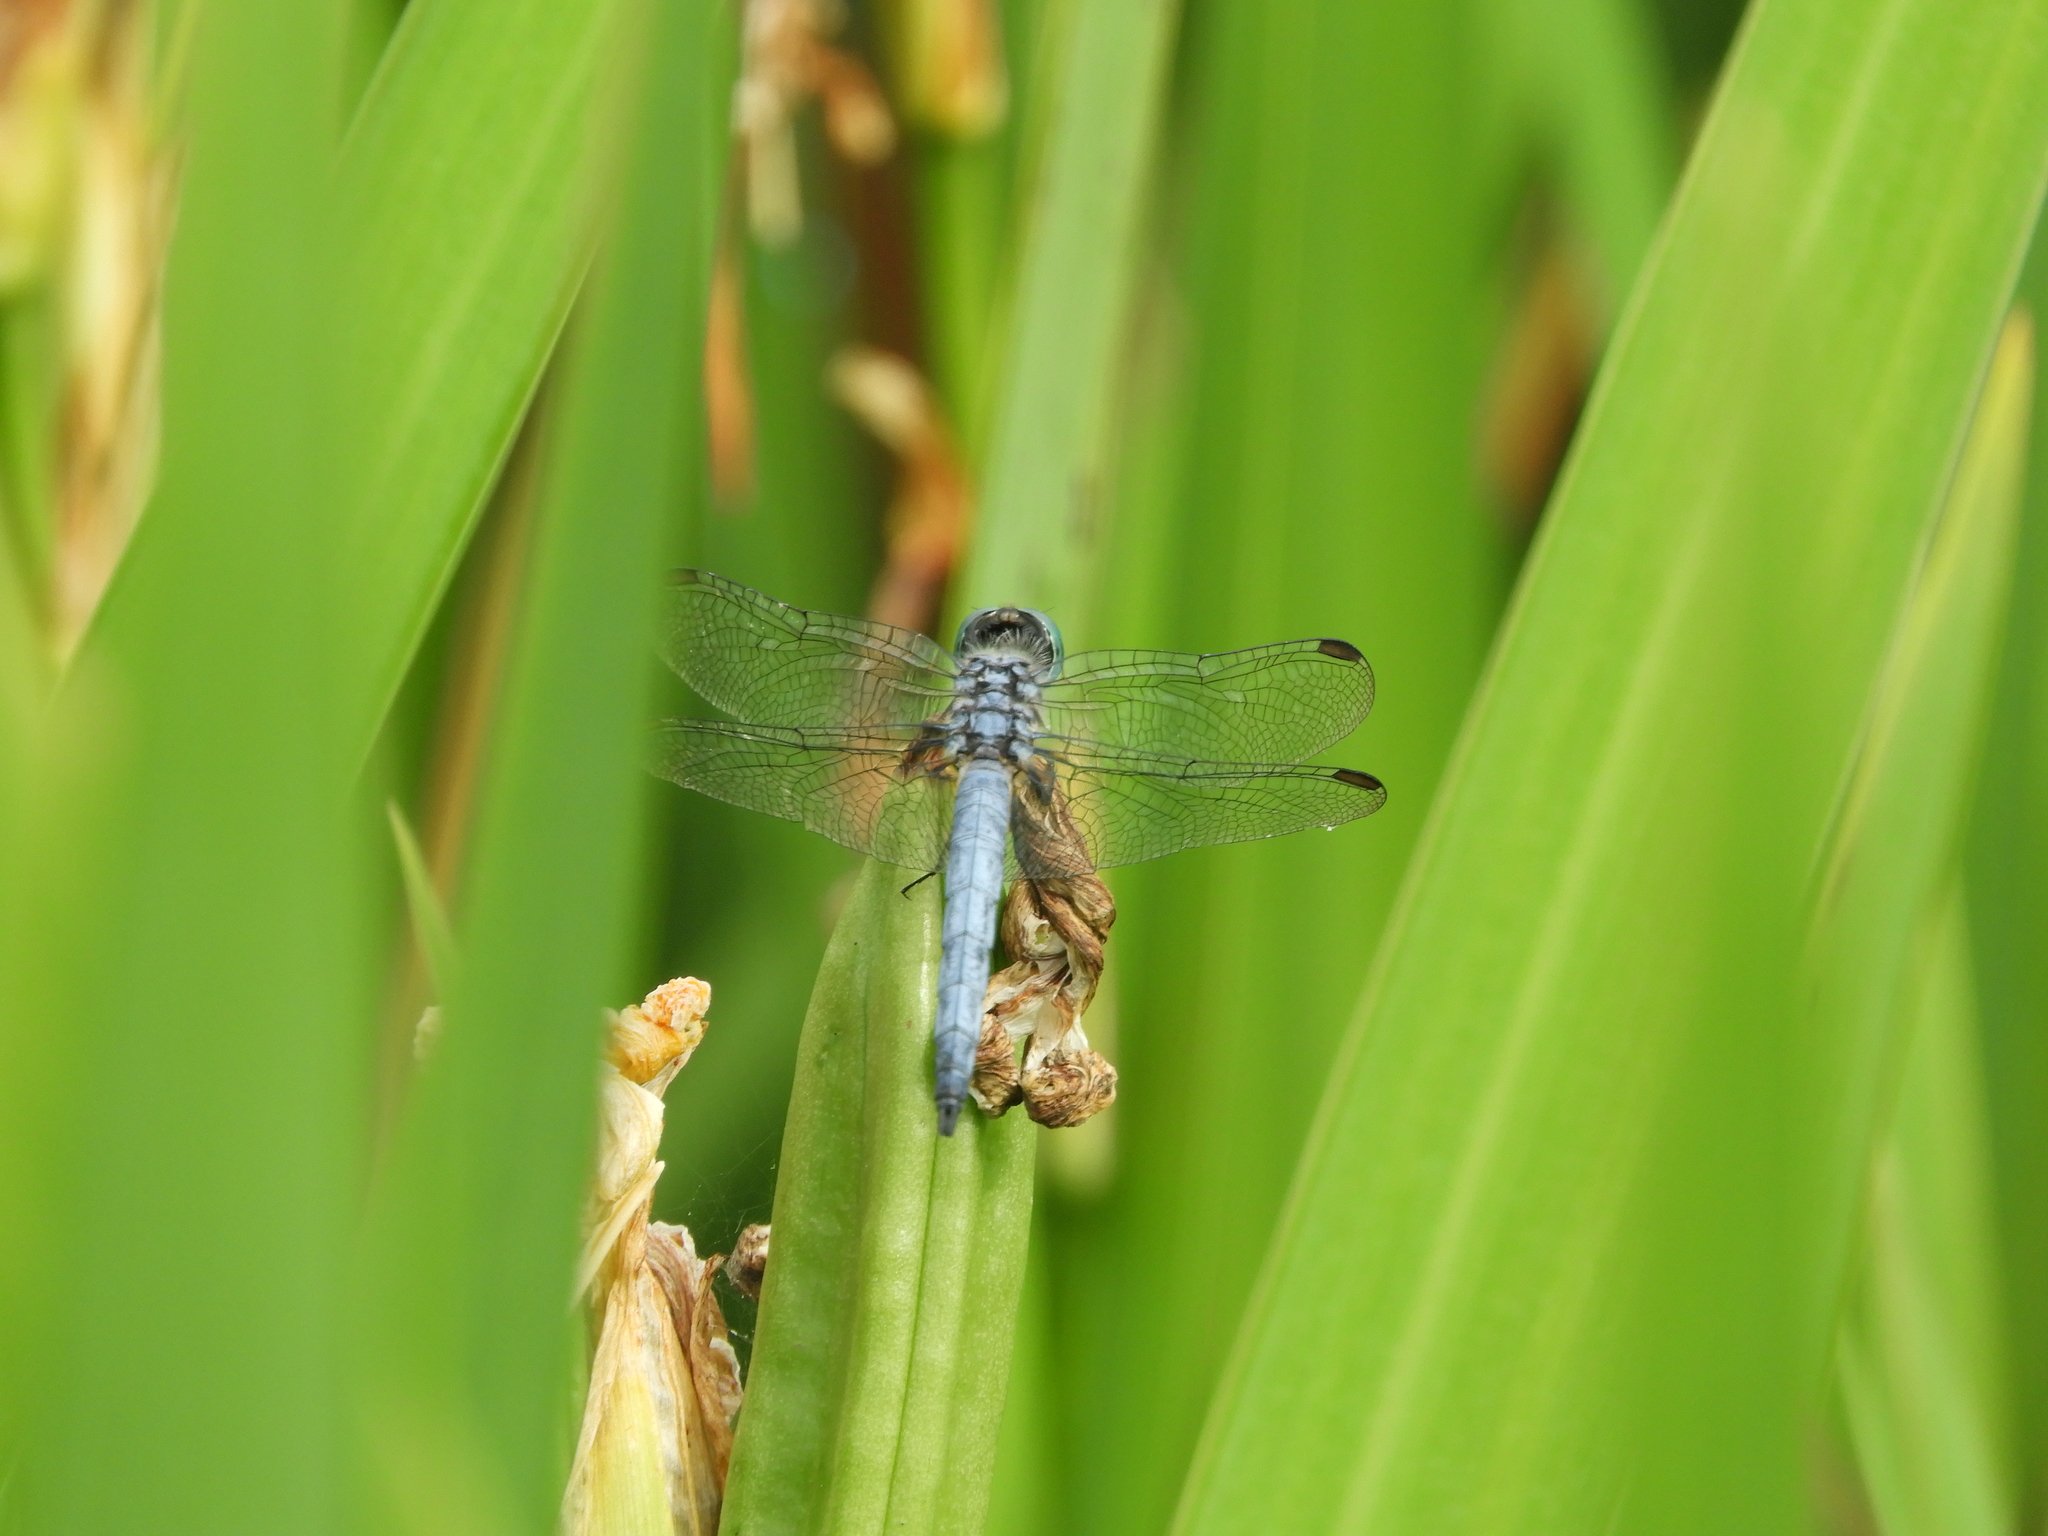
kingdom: Animalia
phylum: Arthropoda
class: Insecta
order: Odonata
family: Libellulidae
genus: Pachydiplax
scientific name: Pachydiplax longipennis
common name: Blue dasher
